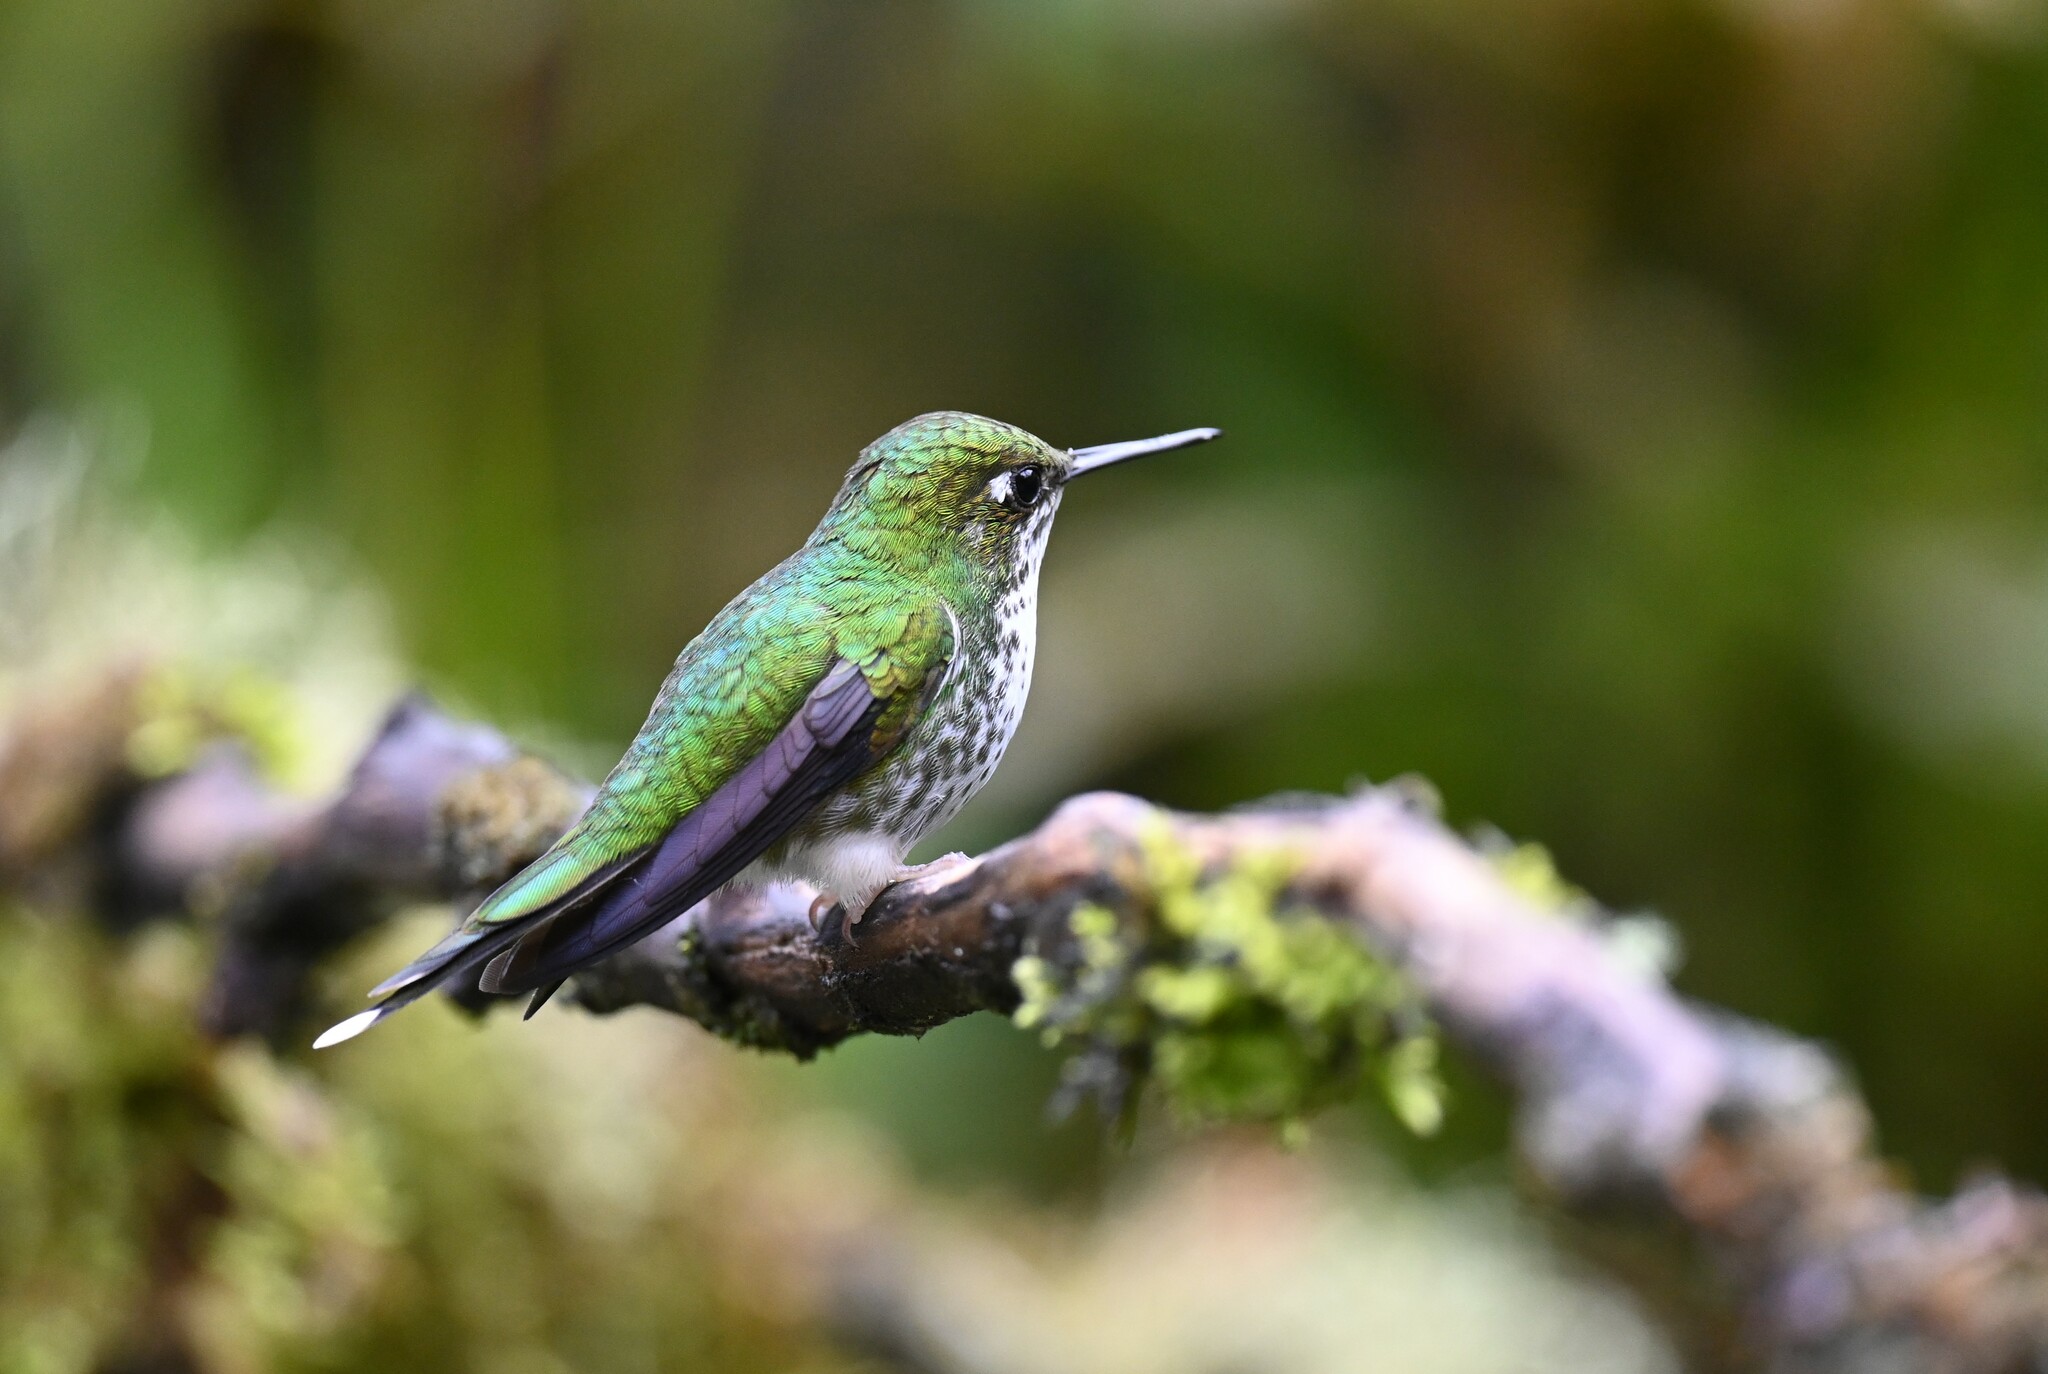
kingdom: Animalia
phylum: Chordata
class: Aves
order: Apodiformes
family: Trochilidae
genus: Ocreatus
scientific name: Ocreatus underwoodii
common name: Booted racket-tail
